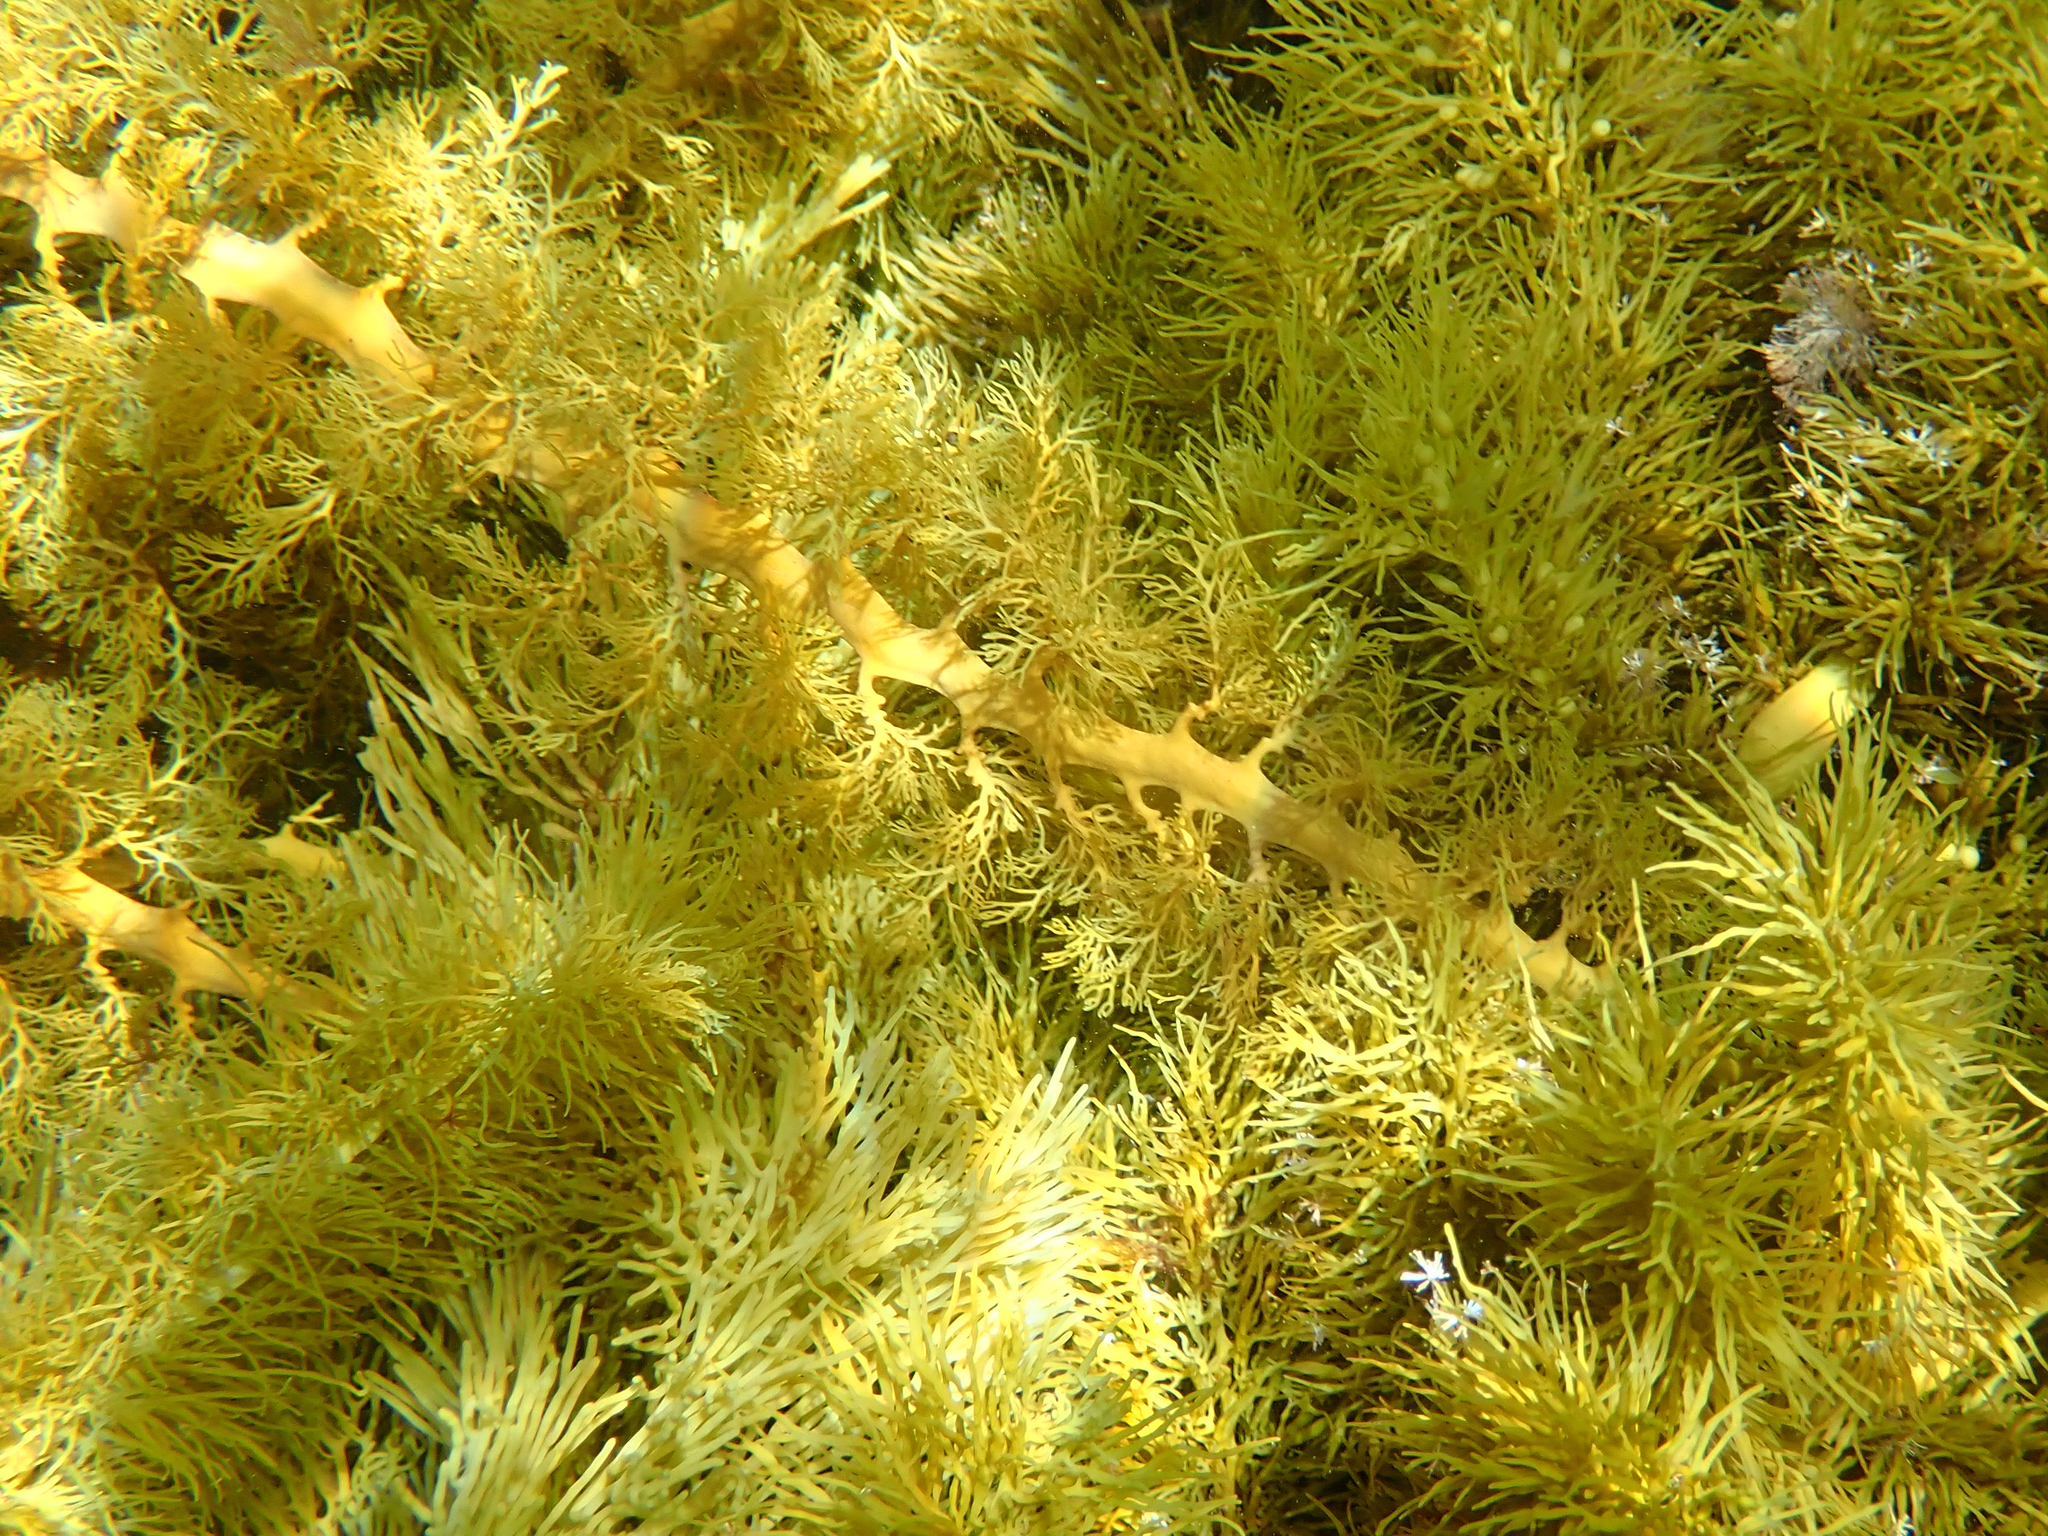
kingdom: Chromista
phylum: Ochrophyta
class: Phaeophyceae
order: Fucales
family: Sargassaceae
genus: Cystophora
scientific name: Cystophora
